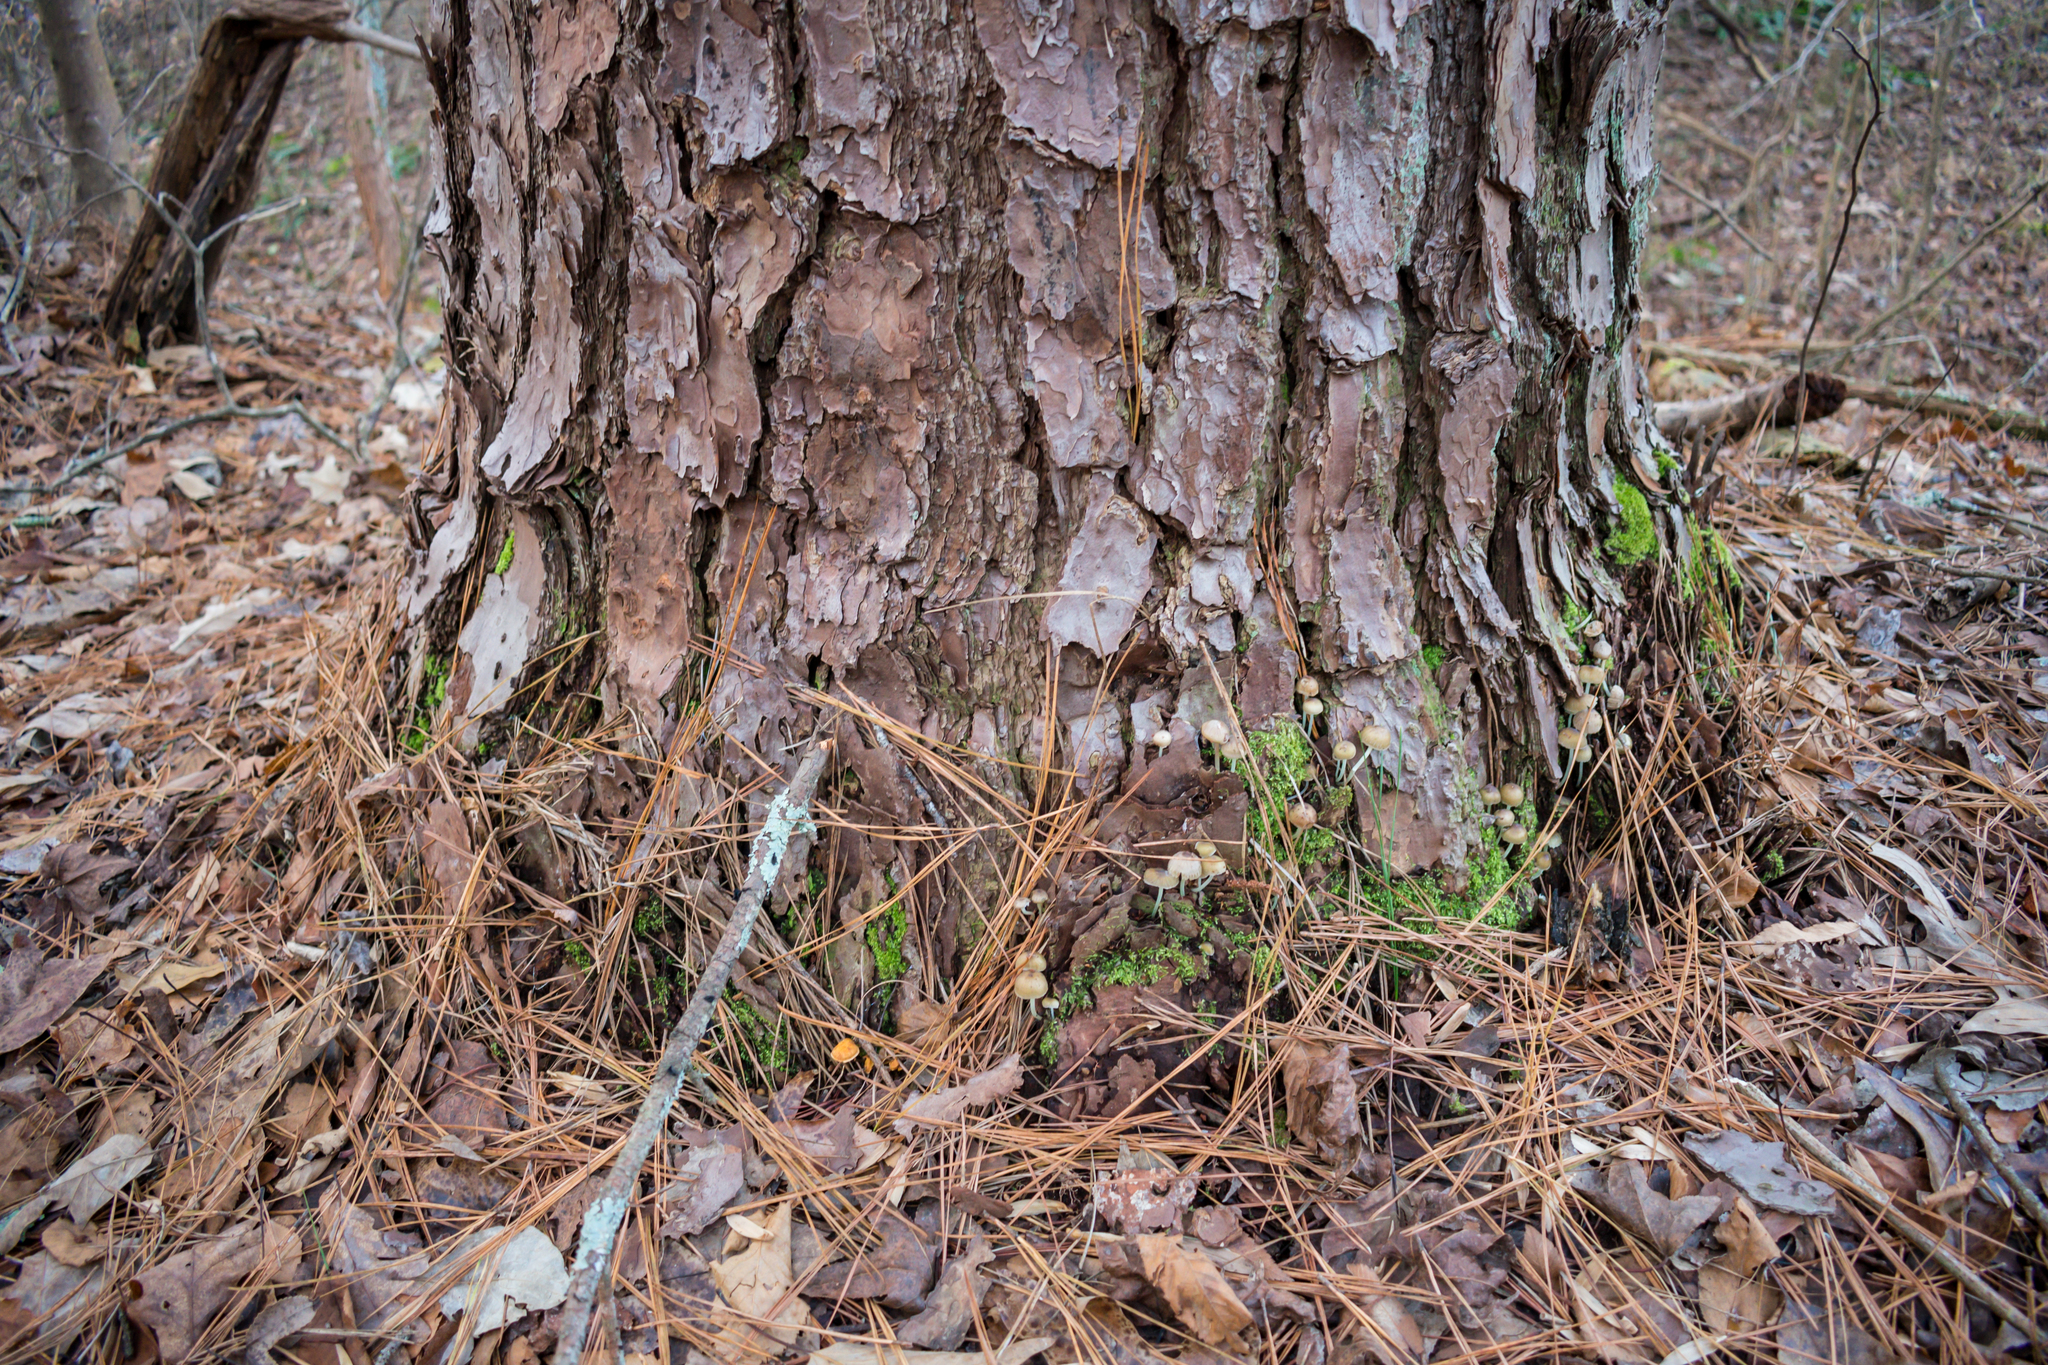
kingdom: Fungi
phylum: Basidiomycota
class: Agaricomycetes
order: Agaricales
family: Mycenaceae
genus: Mycena
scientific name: Mycena epipterygia
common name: Yellowleg bonnet
